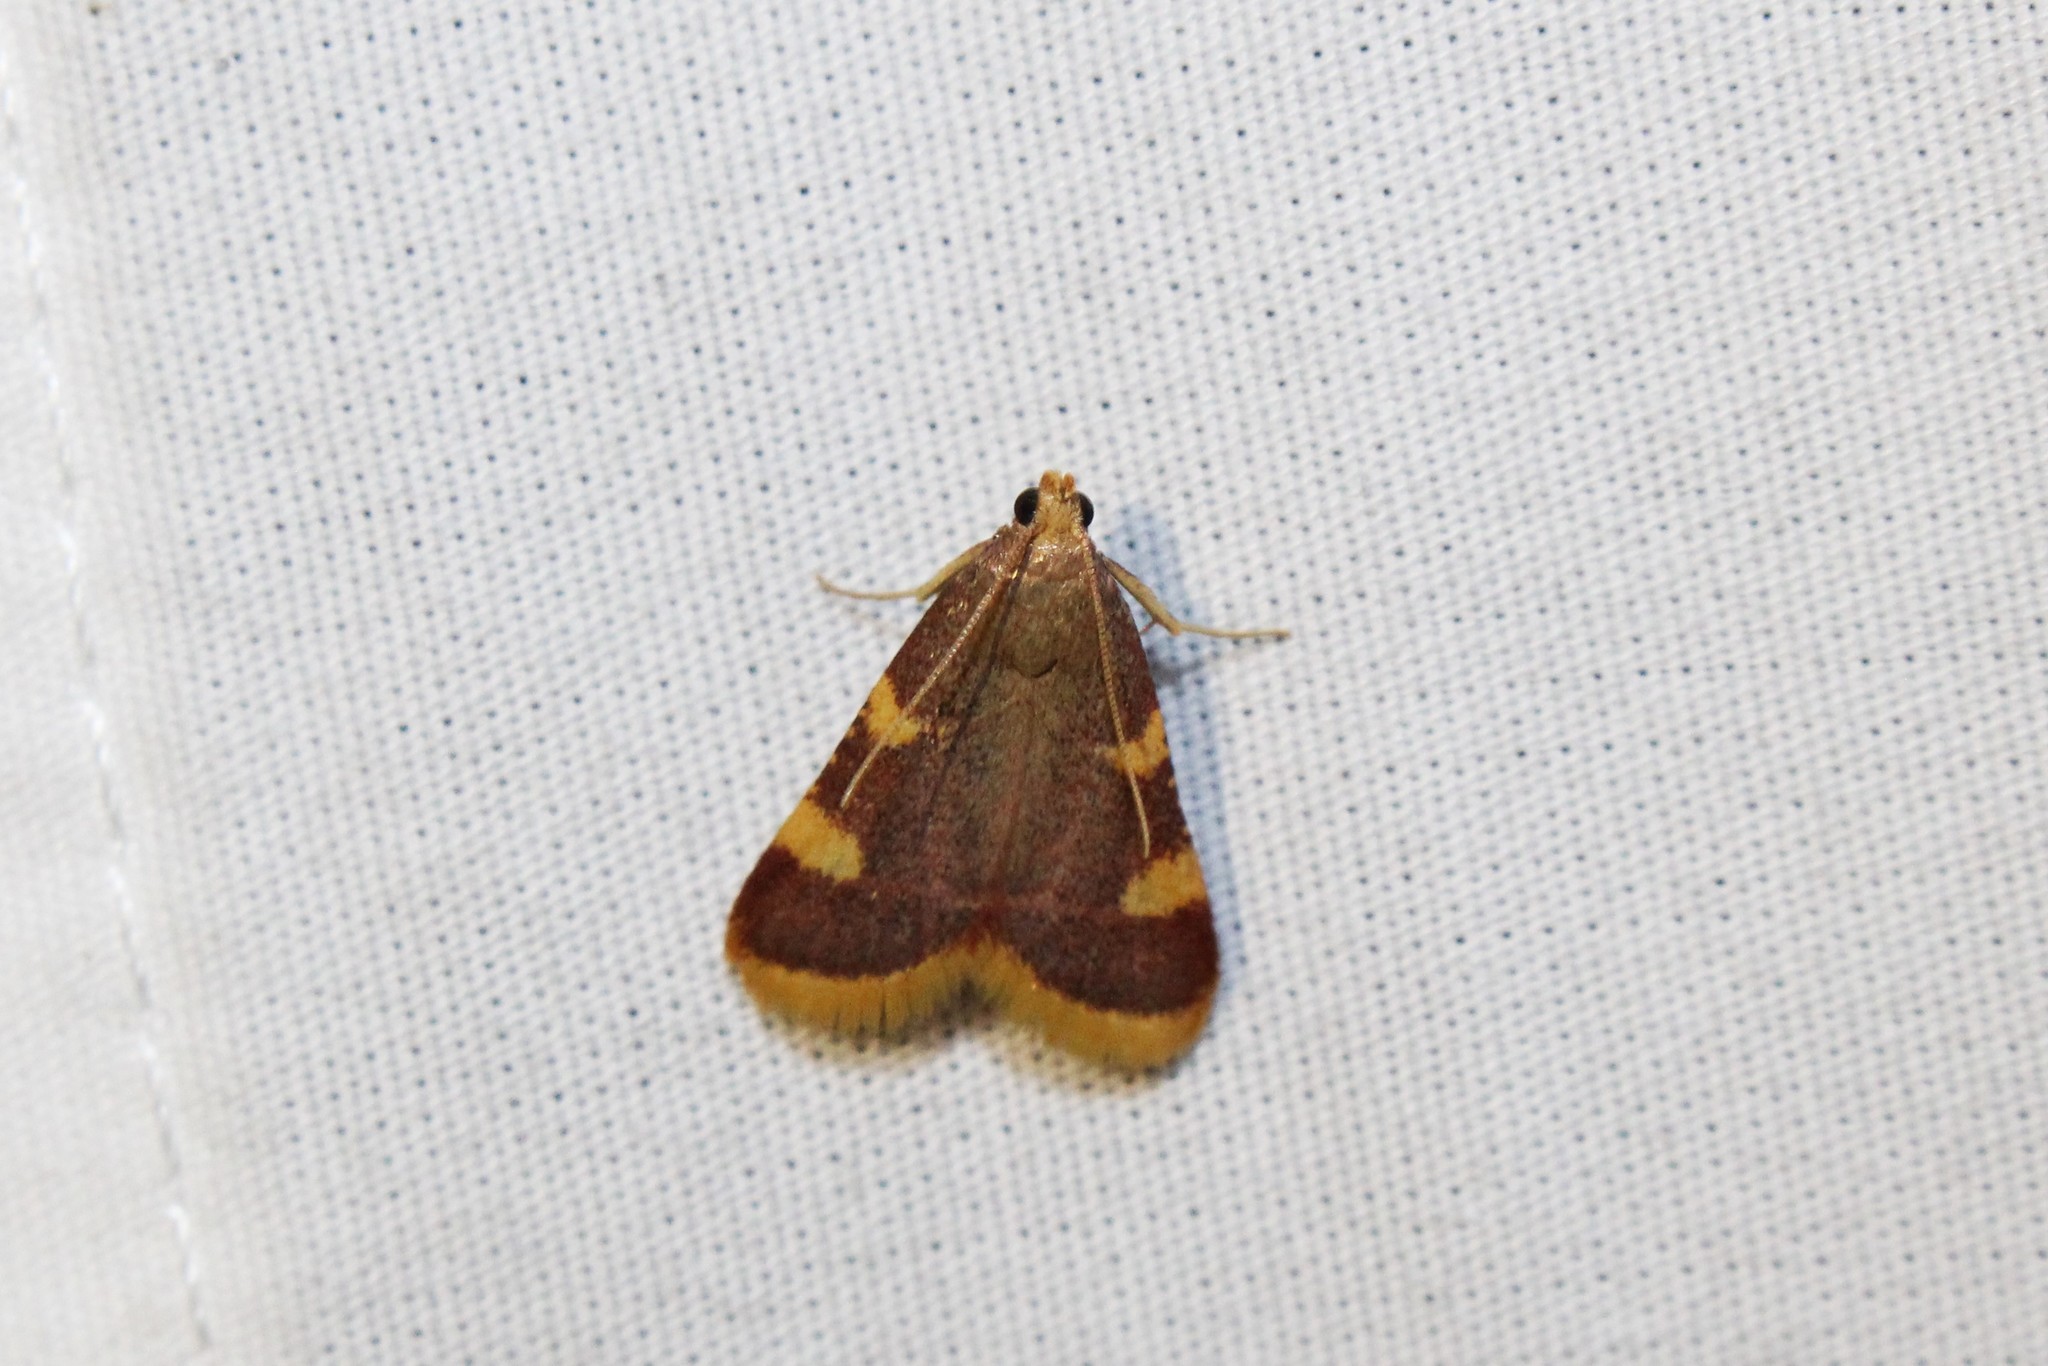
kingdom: Animalia
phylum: Arthropoda
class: Insecta
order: Lepidoptera
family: Pyralidae
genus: Hypsopygia
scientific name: Hypsopygia costalis
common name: Gold triangle
